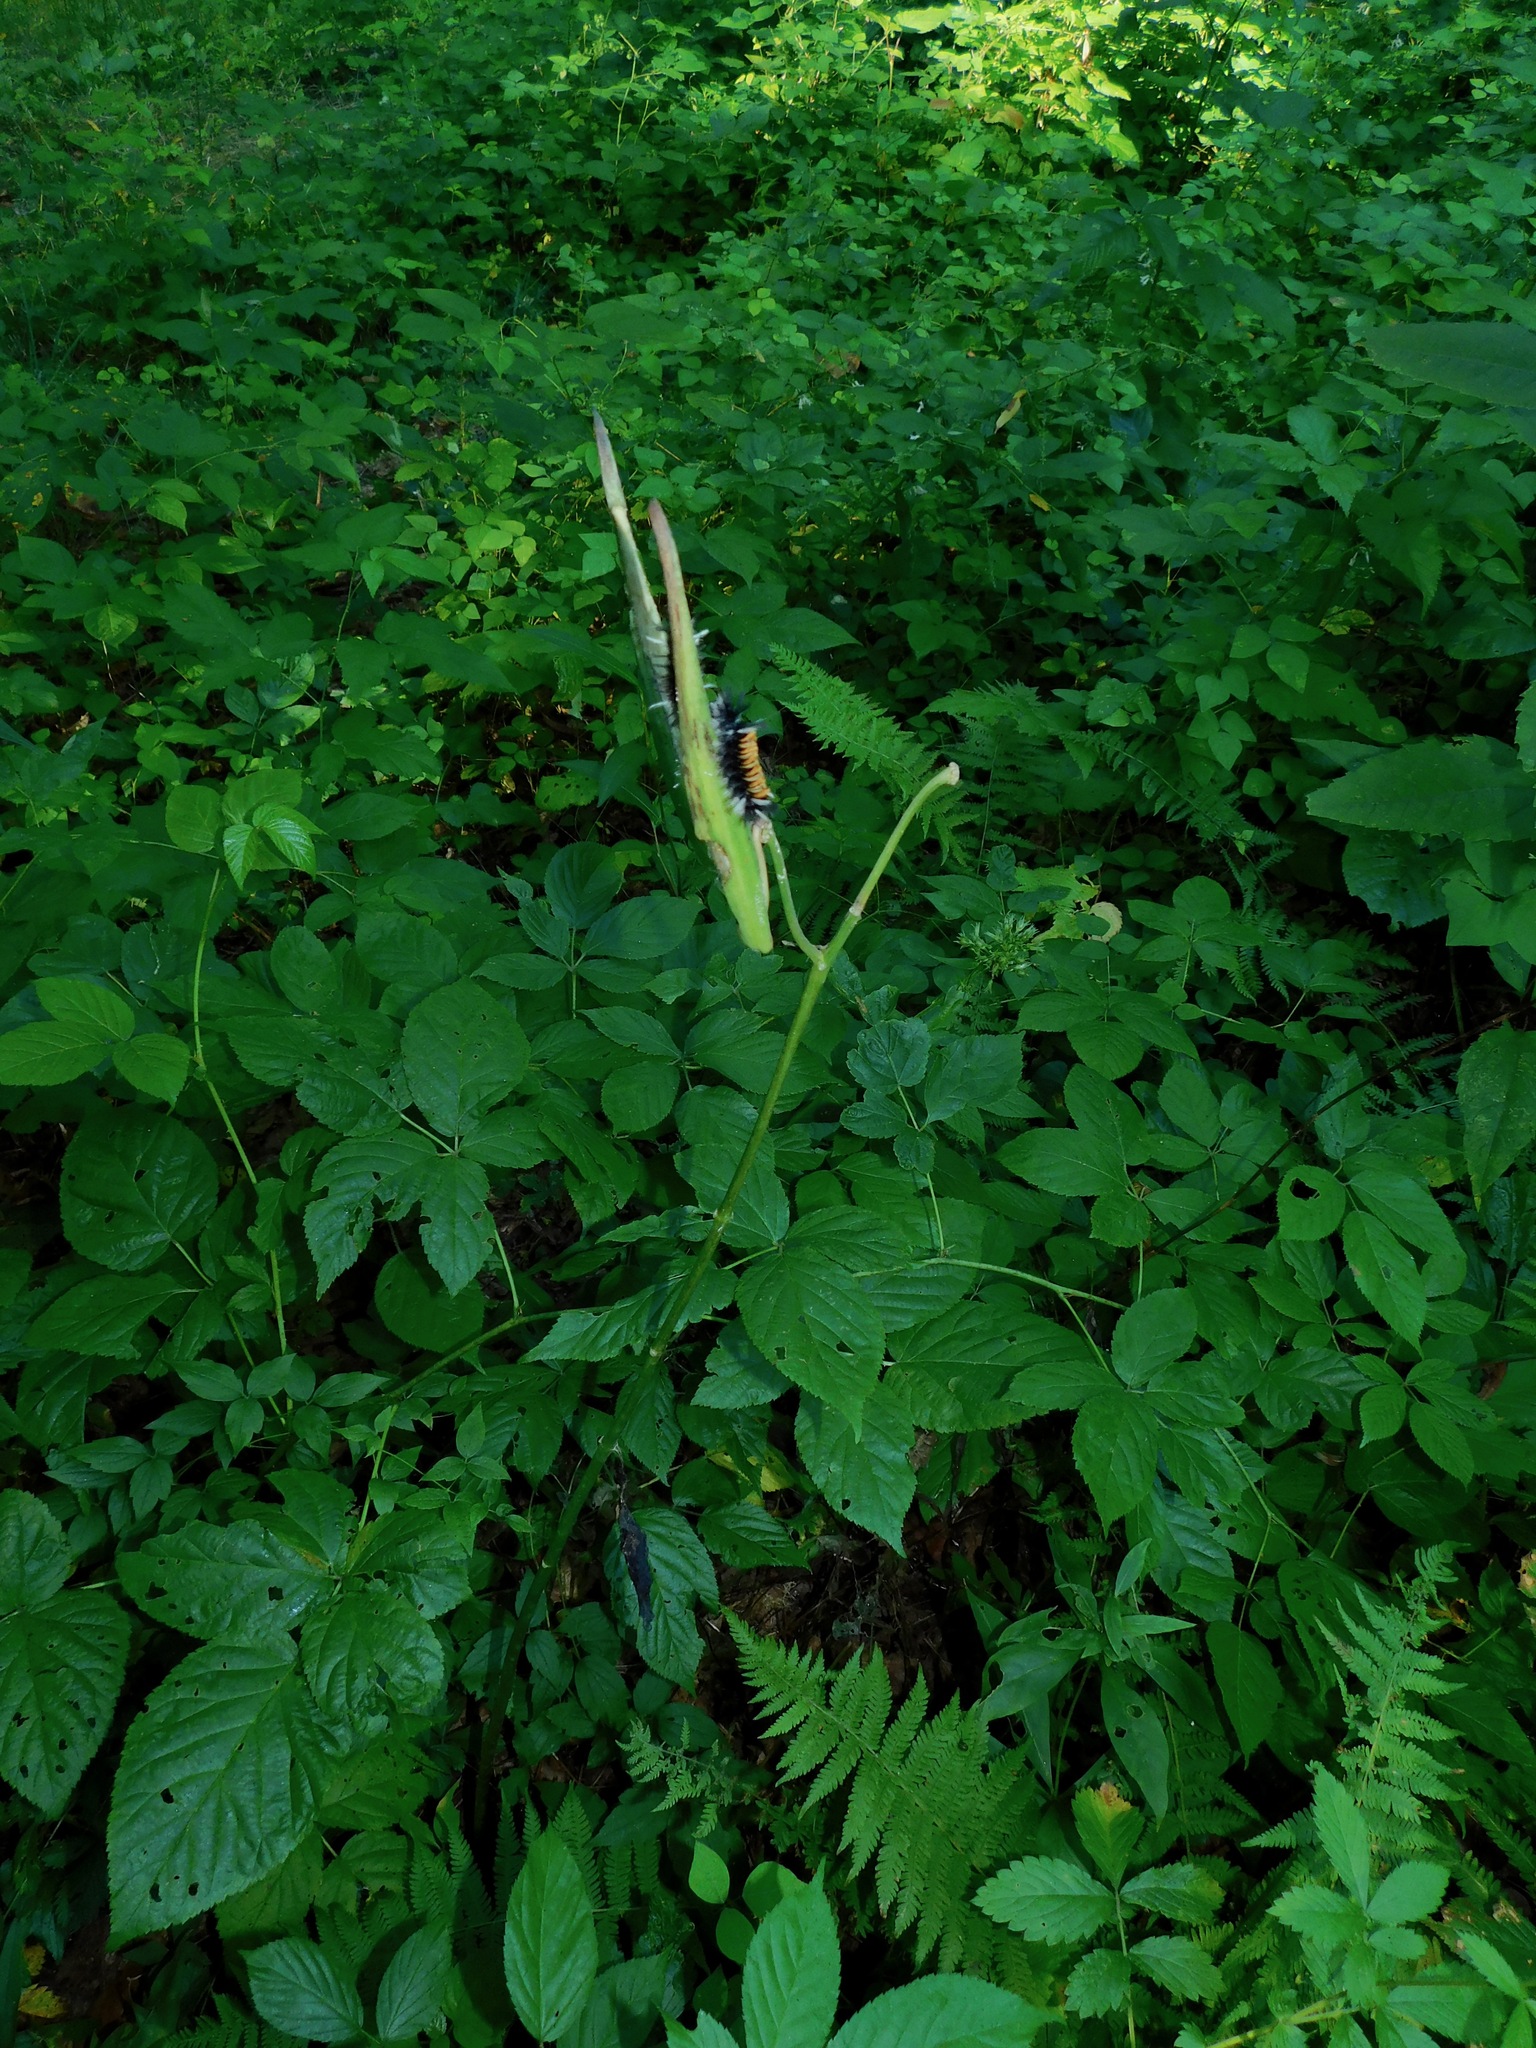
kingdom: Plantae
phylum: Tracheophyta
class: Magnoliopsida
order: Gentianales
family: Apocynaceae
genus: Asclepias
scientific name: Asclepias exaltata
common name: Poke milkweed
